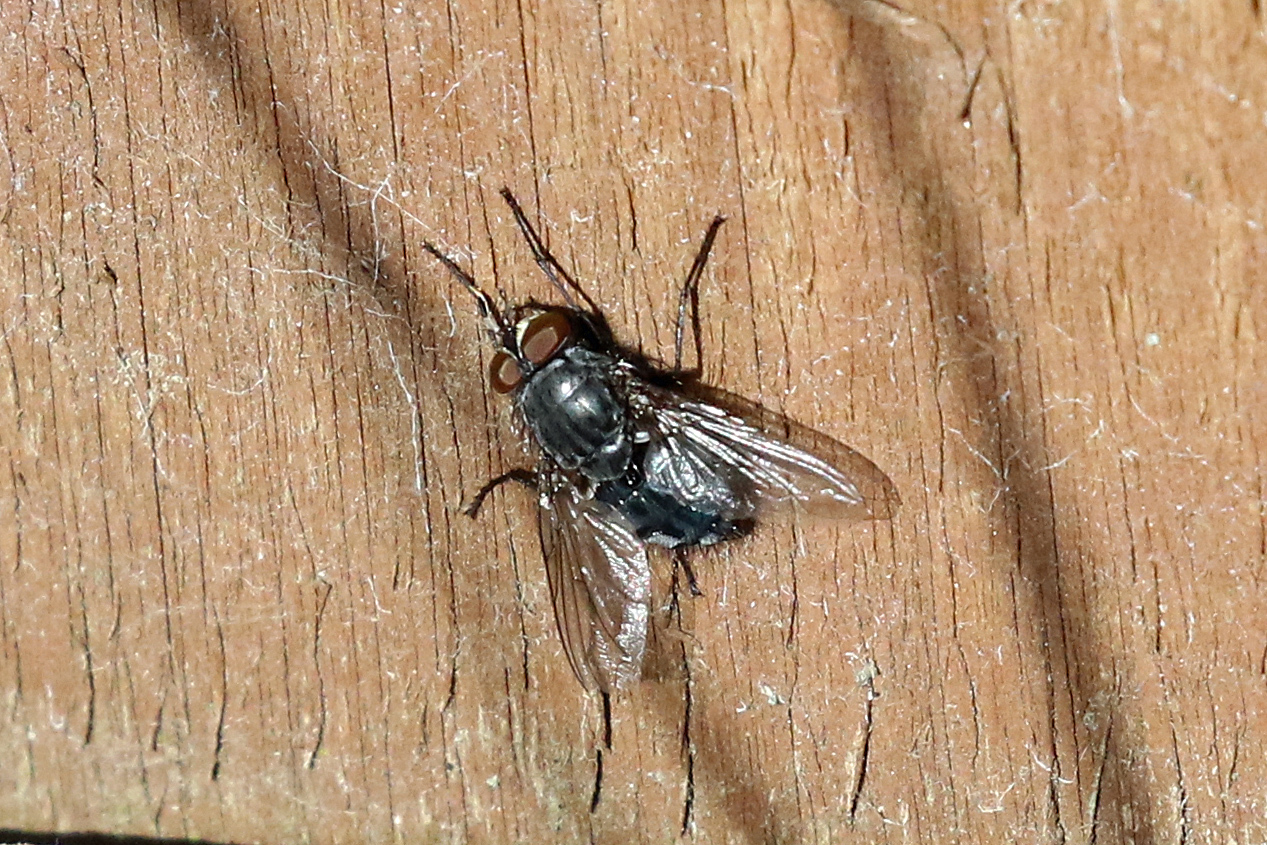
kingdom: Animalia
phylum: Arthropoda
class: Insecta
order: Diptera
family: Calliphoridae
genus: Calliphora
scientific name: Calliphora
